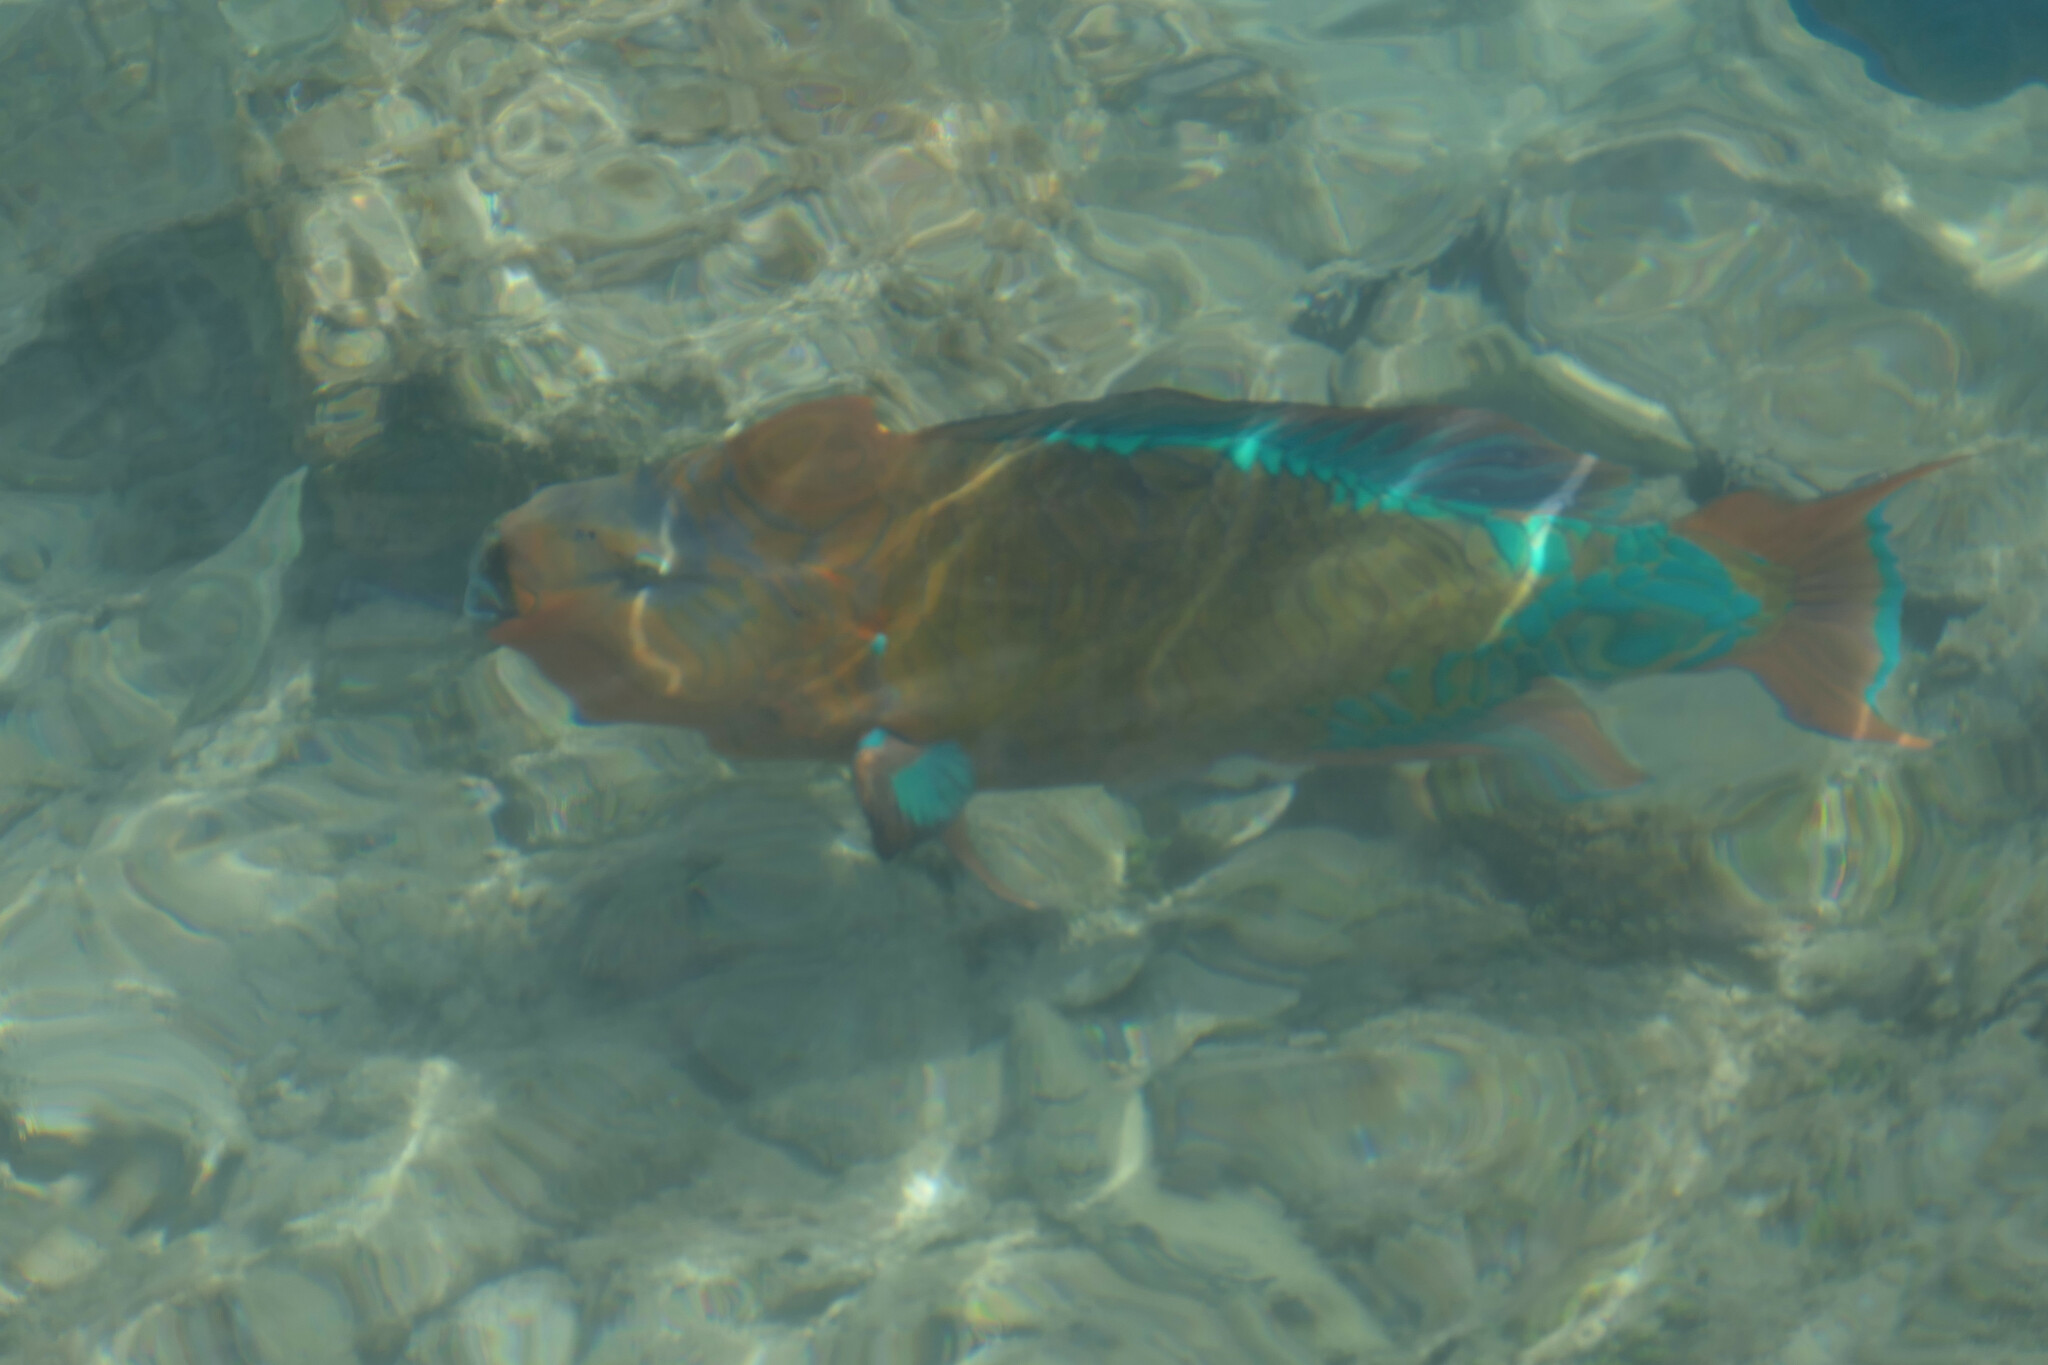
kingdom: Animalia
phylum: Chordata
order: Perciformes
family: Scaridae
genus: Scarus
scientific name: Scarus guacamaia
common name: Rainbow parrotfish
